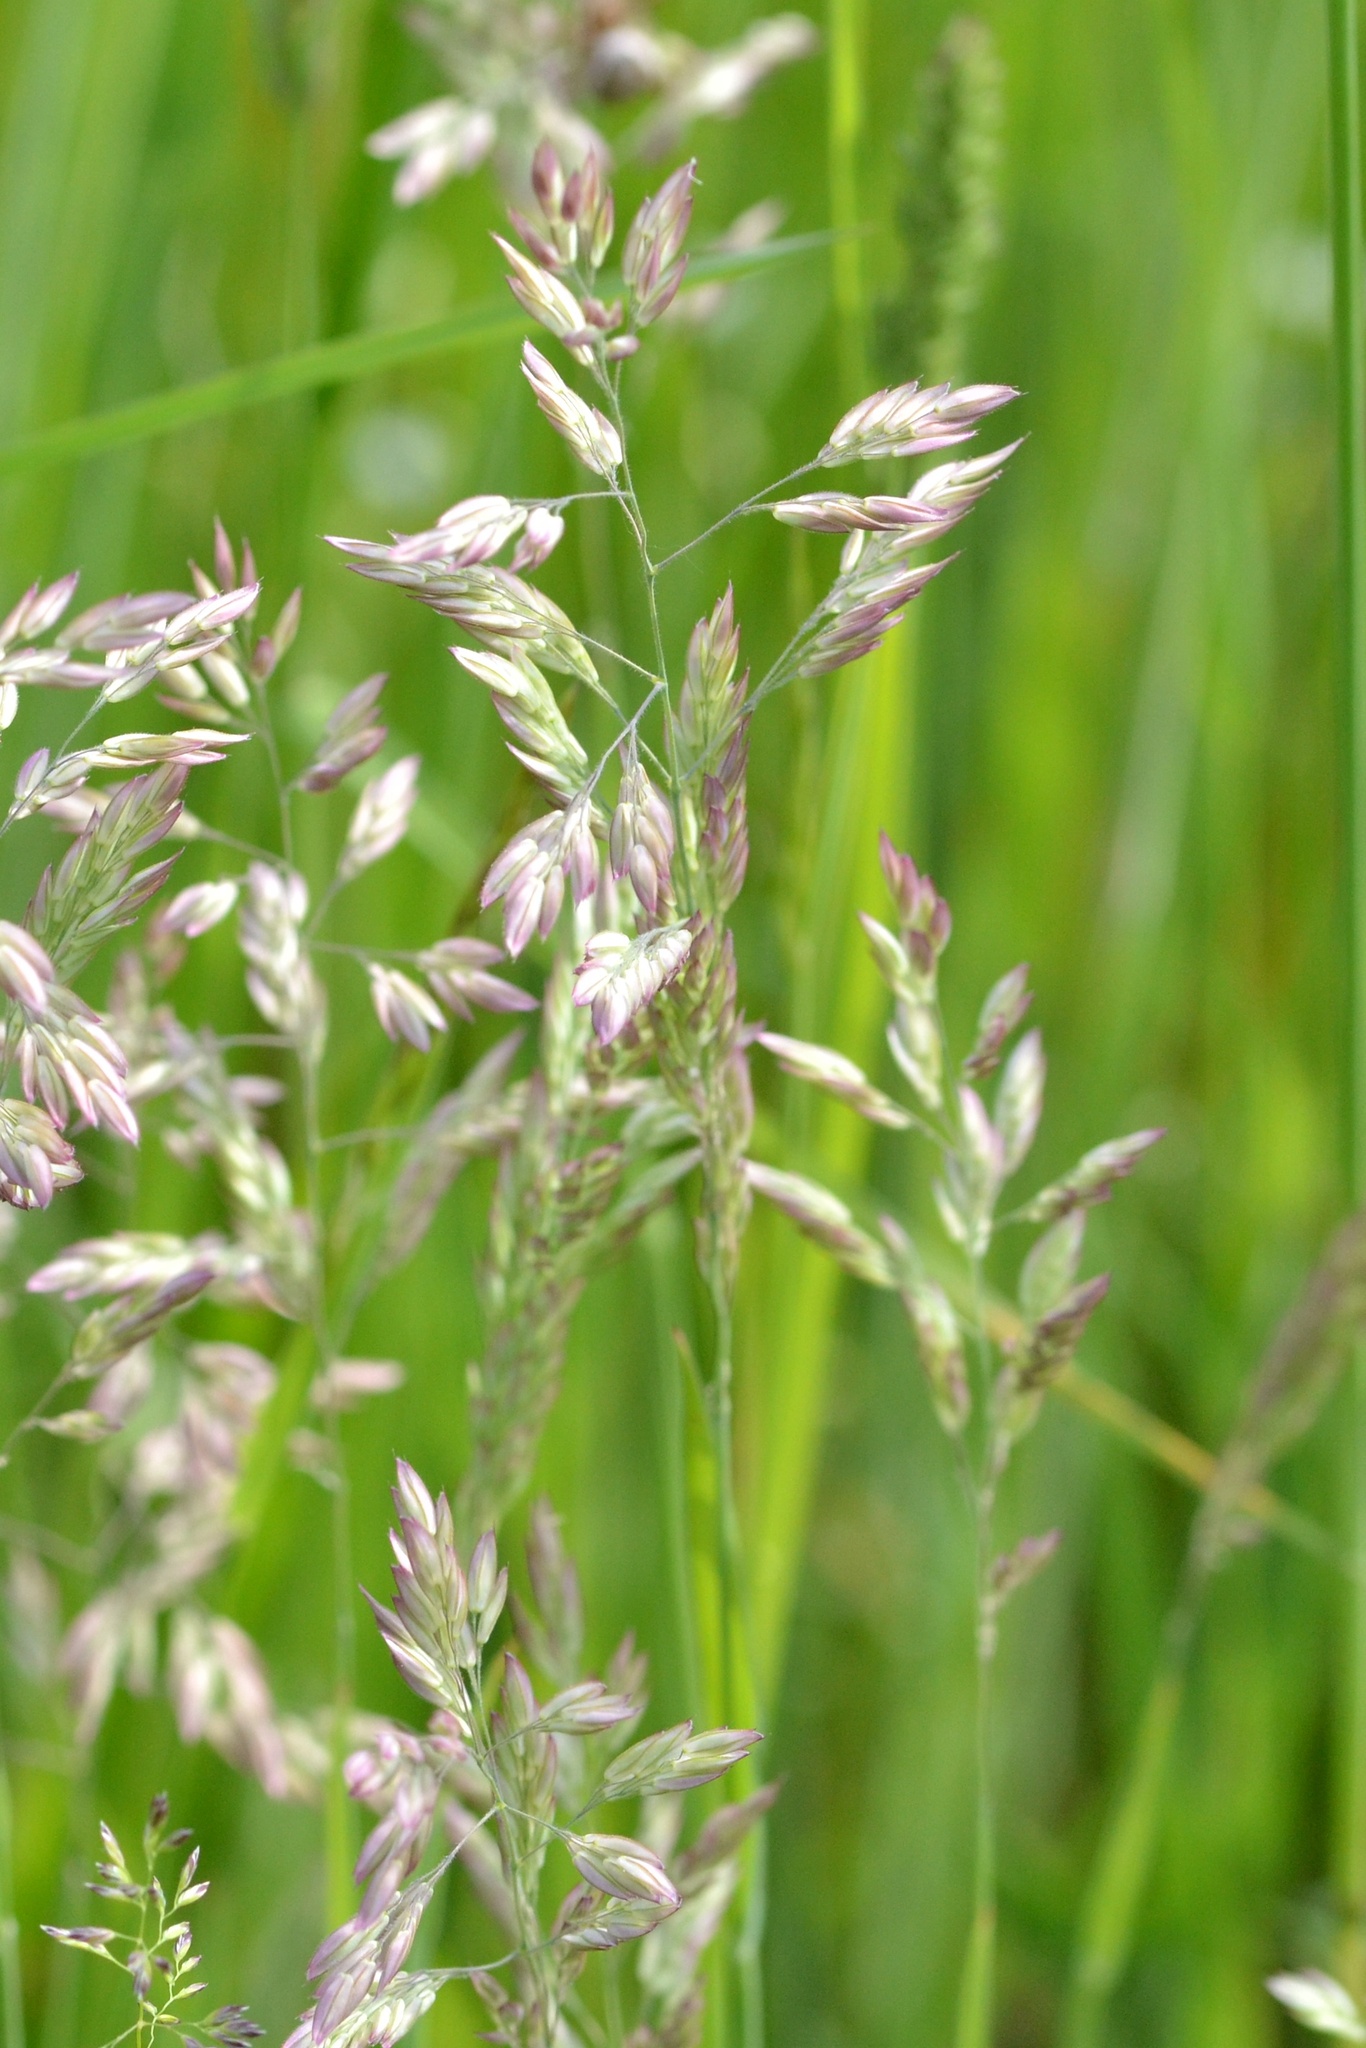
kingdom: Plantae
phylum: Tracheophyta
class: Liliopsida
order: Poales
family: Poaceae
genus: Holcus
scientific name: Holcus lanatus
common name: Yorkshire-fog
